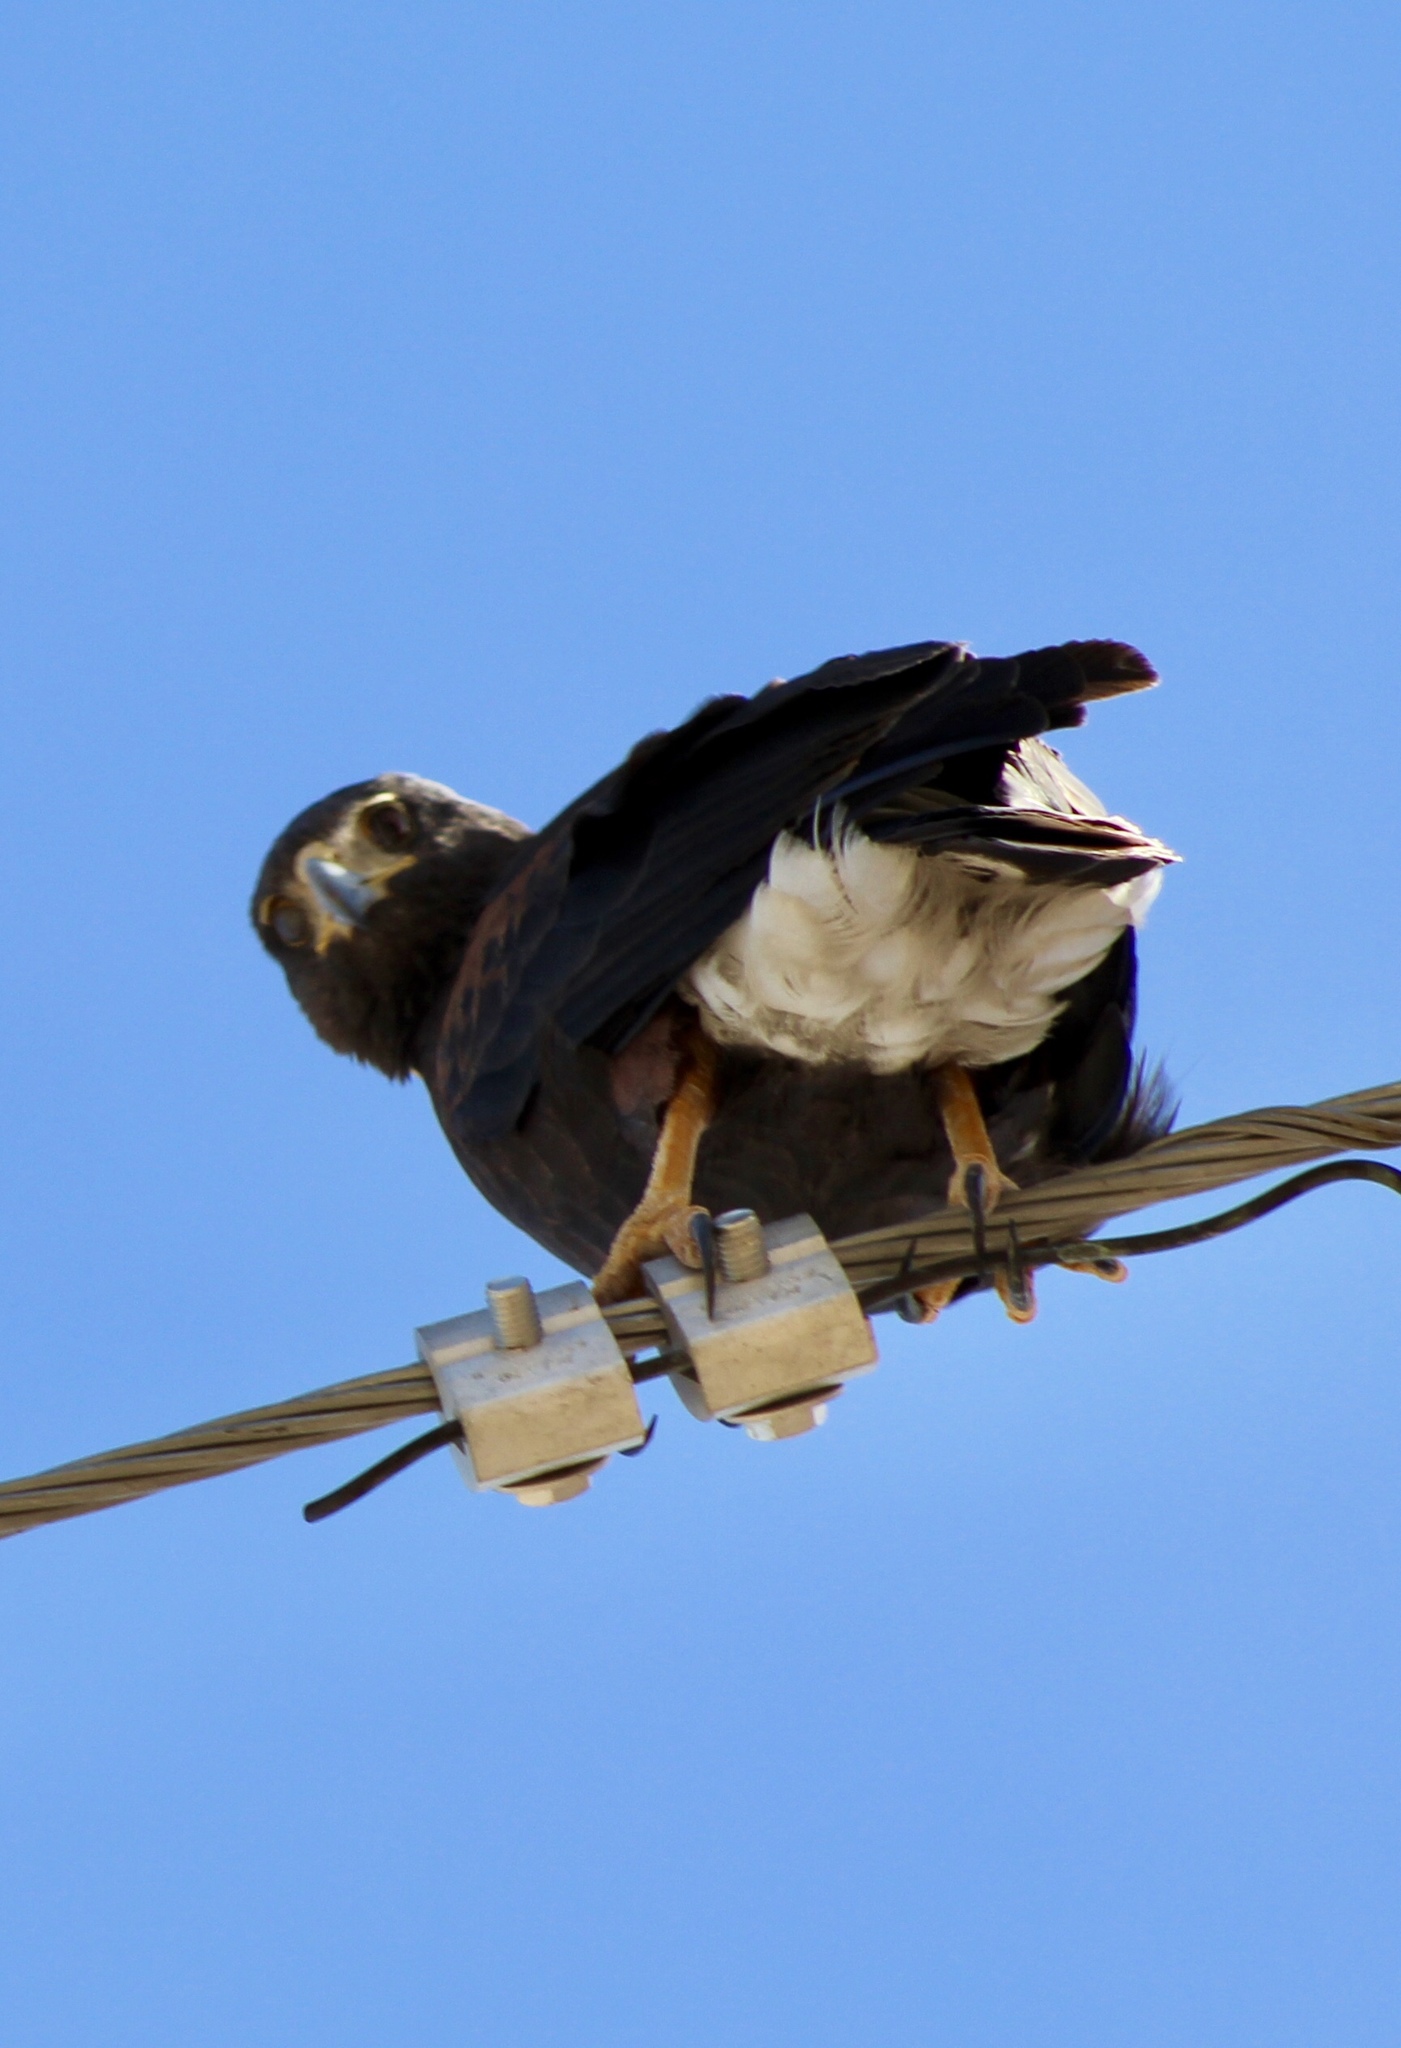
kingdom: Animalia
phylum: Chordata
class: Aves
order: Accipitriformes
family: Accipitridae
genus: Parabuteo
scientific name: Parabuteo unicinctus
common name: Harris's hawk
